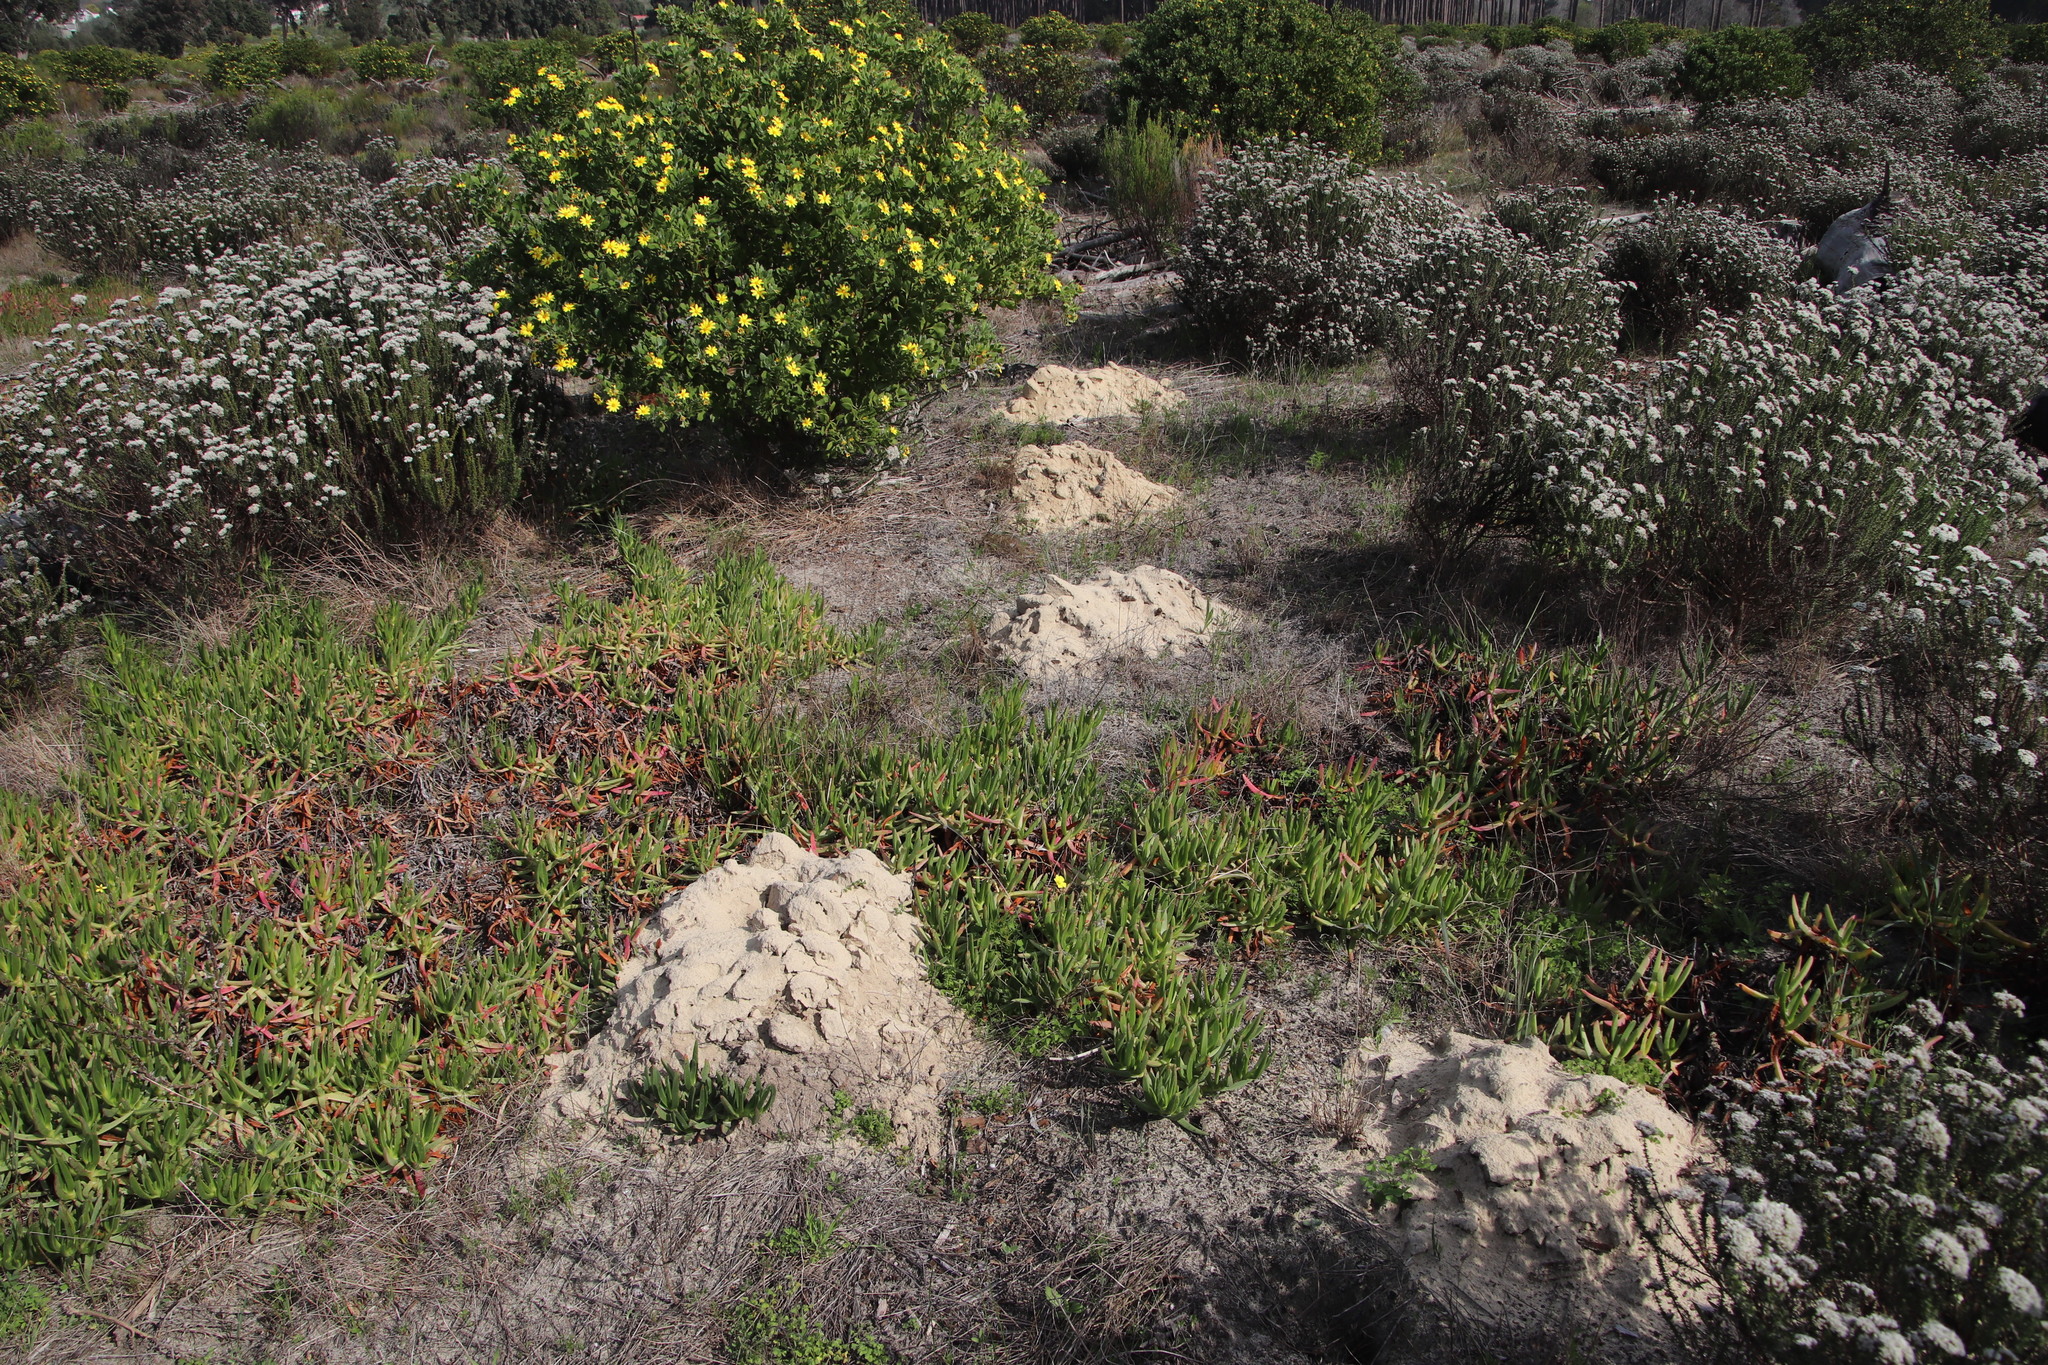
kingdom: Animalia
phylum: Chordata
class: Mammalia
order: Rodentia
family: Bathyergidae
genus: Bathyergus
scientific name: Bathyergus suillus
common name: Cape dune mole rat
